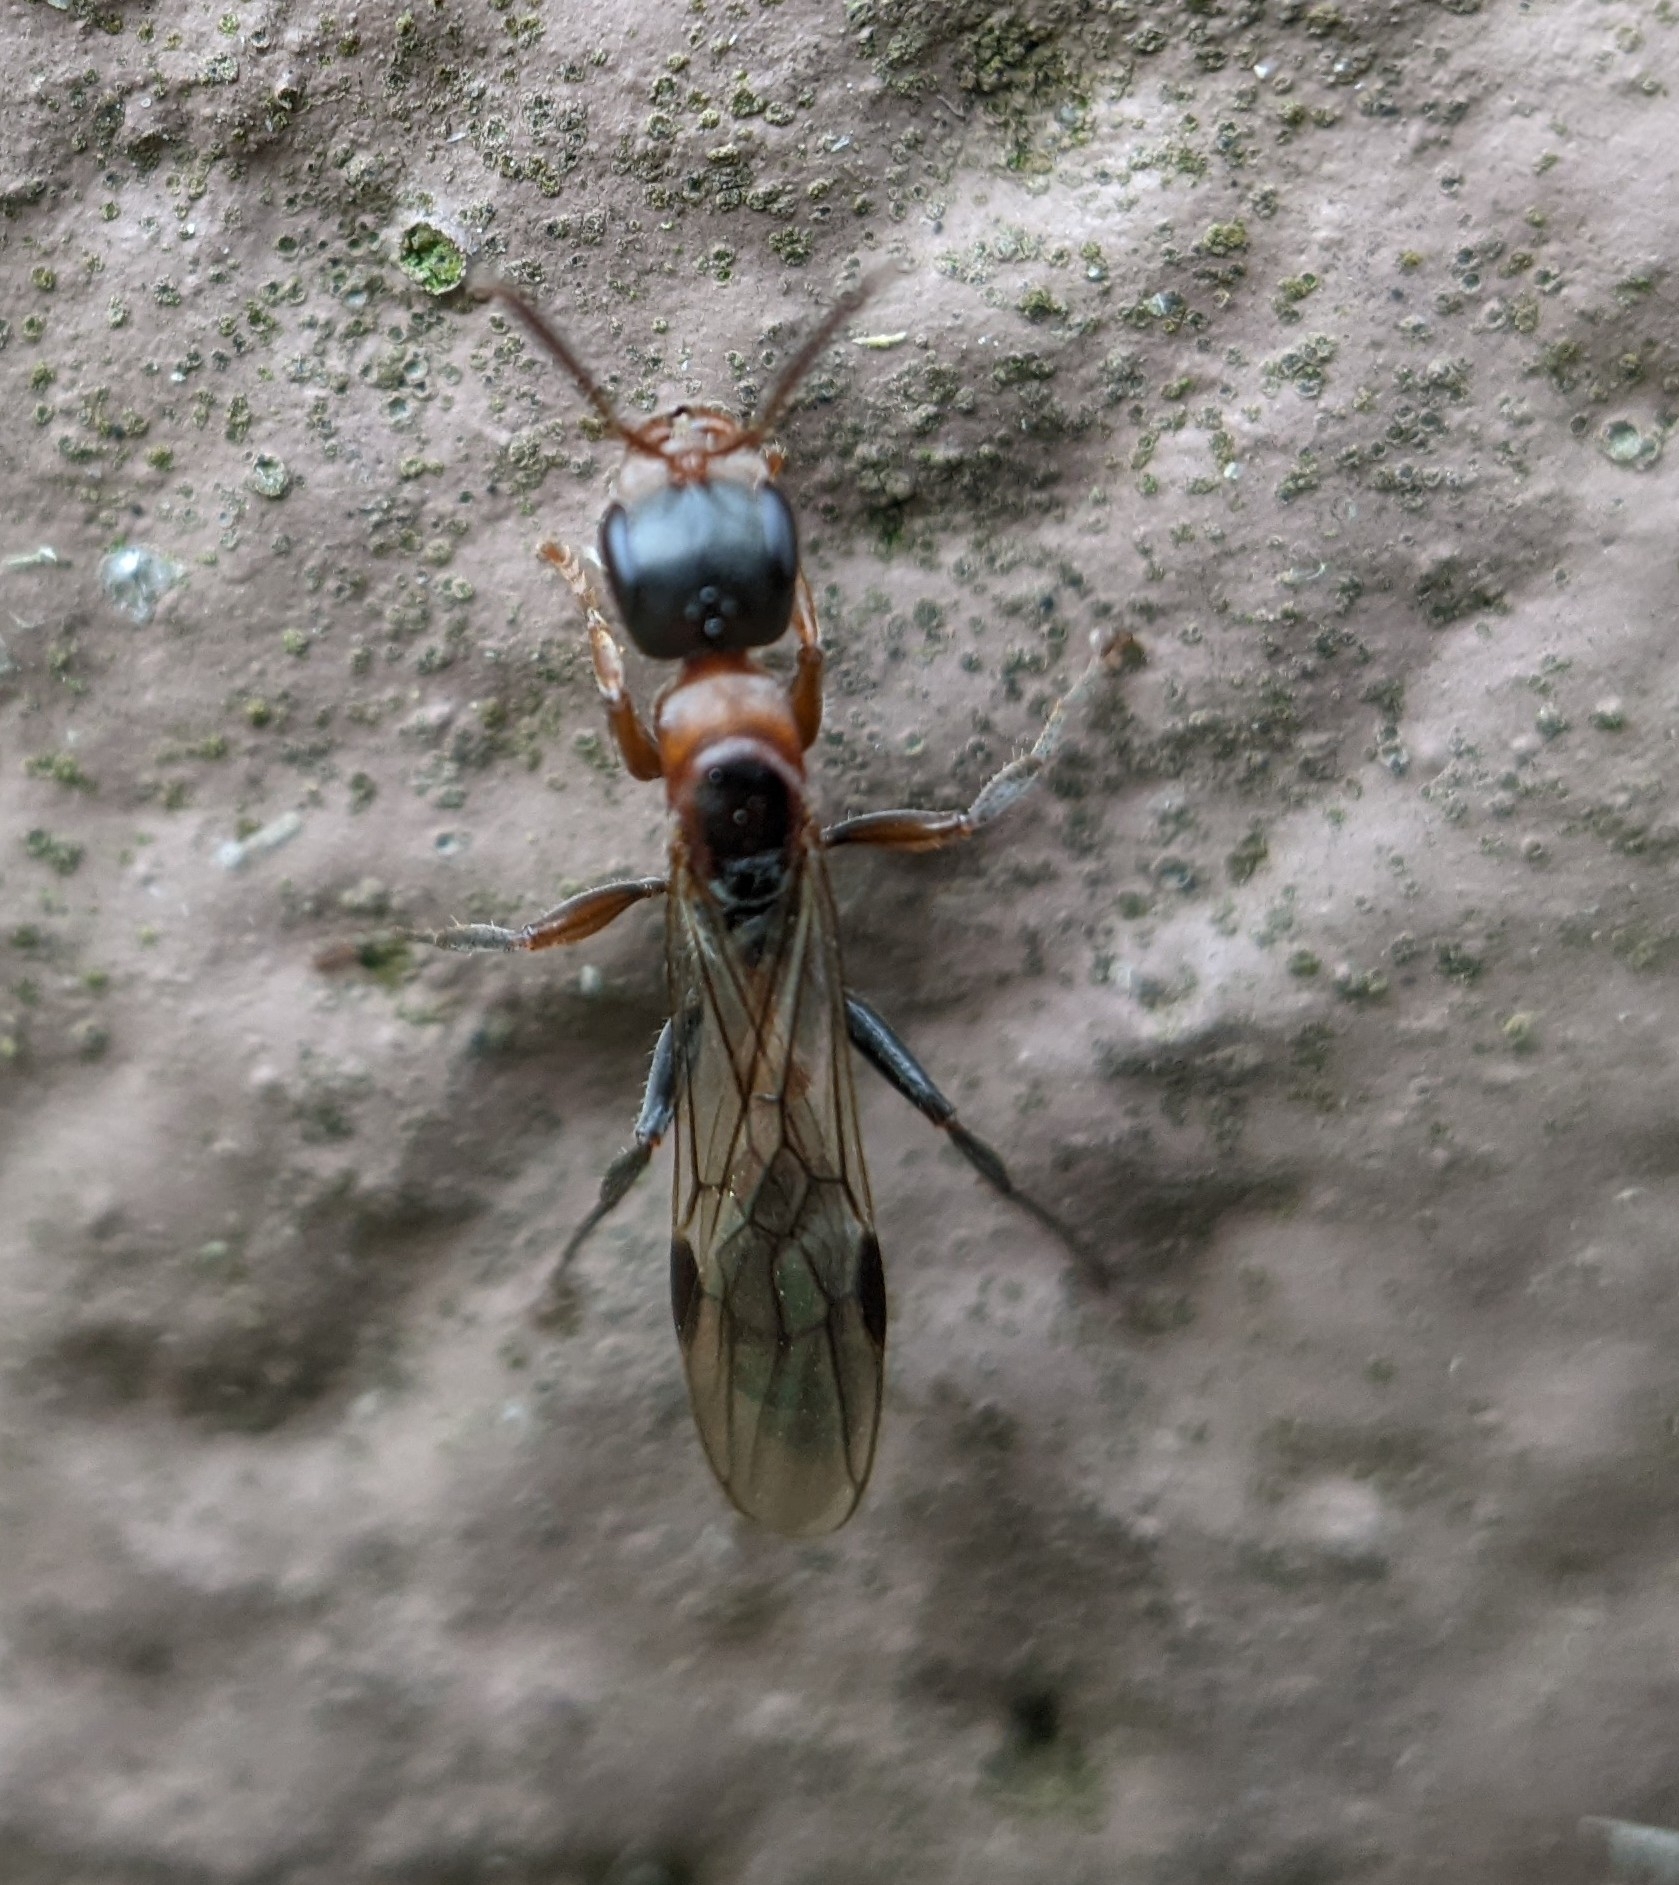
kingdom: Animalia
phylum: Arthropoda
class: Insecta
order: Hymenoptera
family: Formicidae
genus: Pseudomyrmex
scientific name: Pseudomyrmex gracilis
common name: Graceful twig ant
